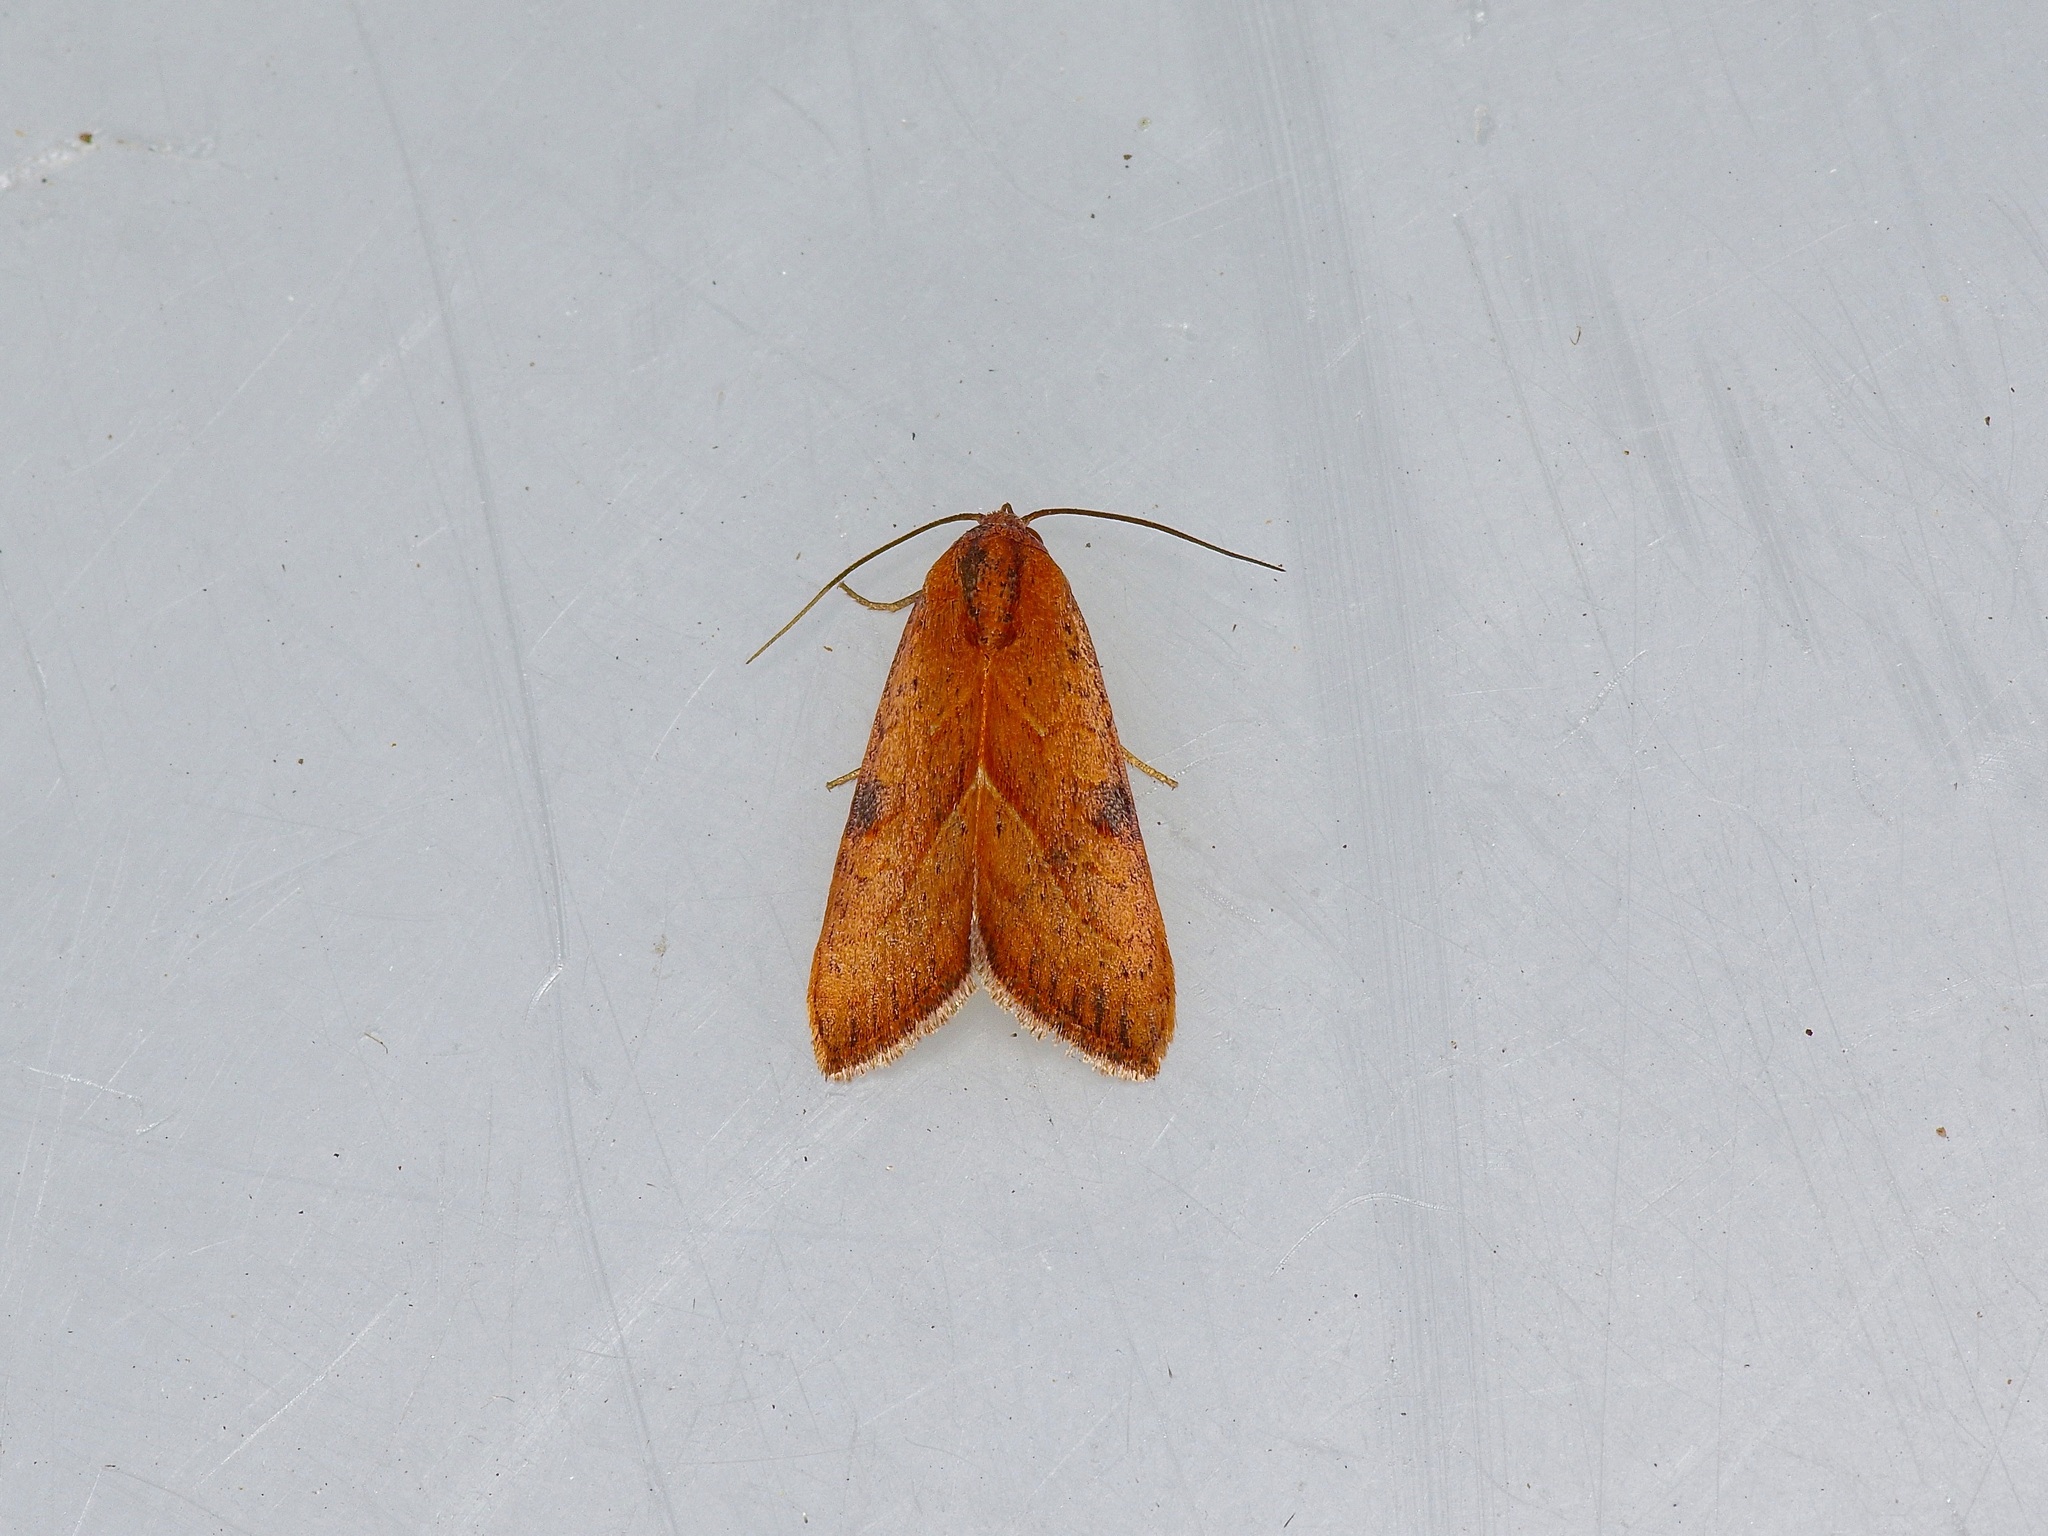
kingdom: Animalia
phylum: Arthropoda
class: Insecta
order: Lepidoptera
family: Noctuidae
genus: Galgula
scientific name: Galgula partita
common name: Wedgeling
